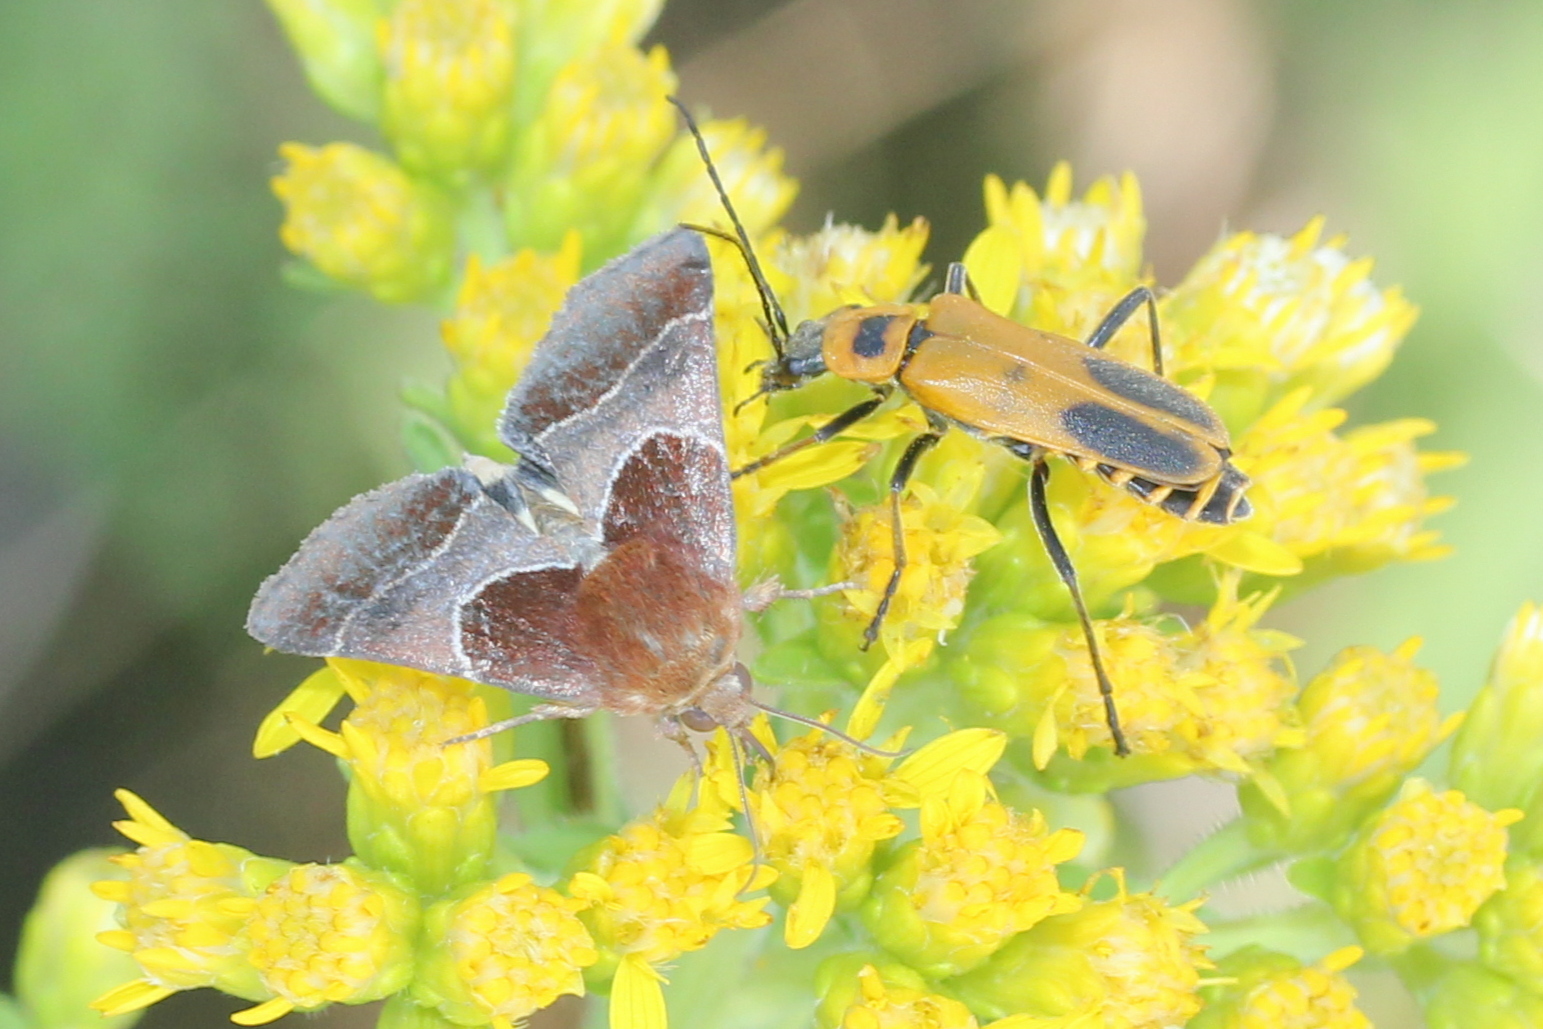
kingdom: Animalia
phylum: Arthropoda
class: Insecta
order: Coleoptera
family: Cantharidae
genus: Chauliognathus
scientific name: Chauliognathus pensylvanicus
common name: Goldenrod soldier beetle
